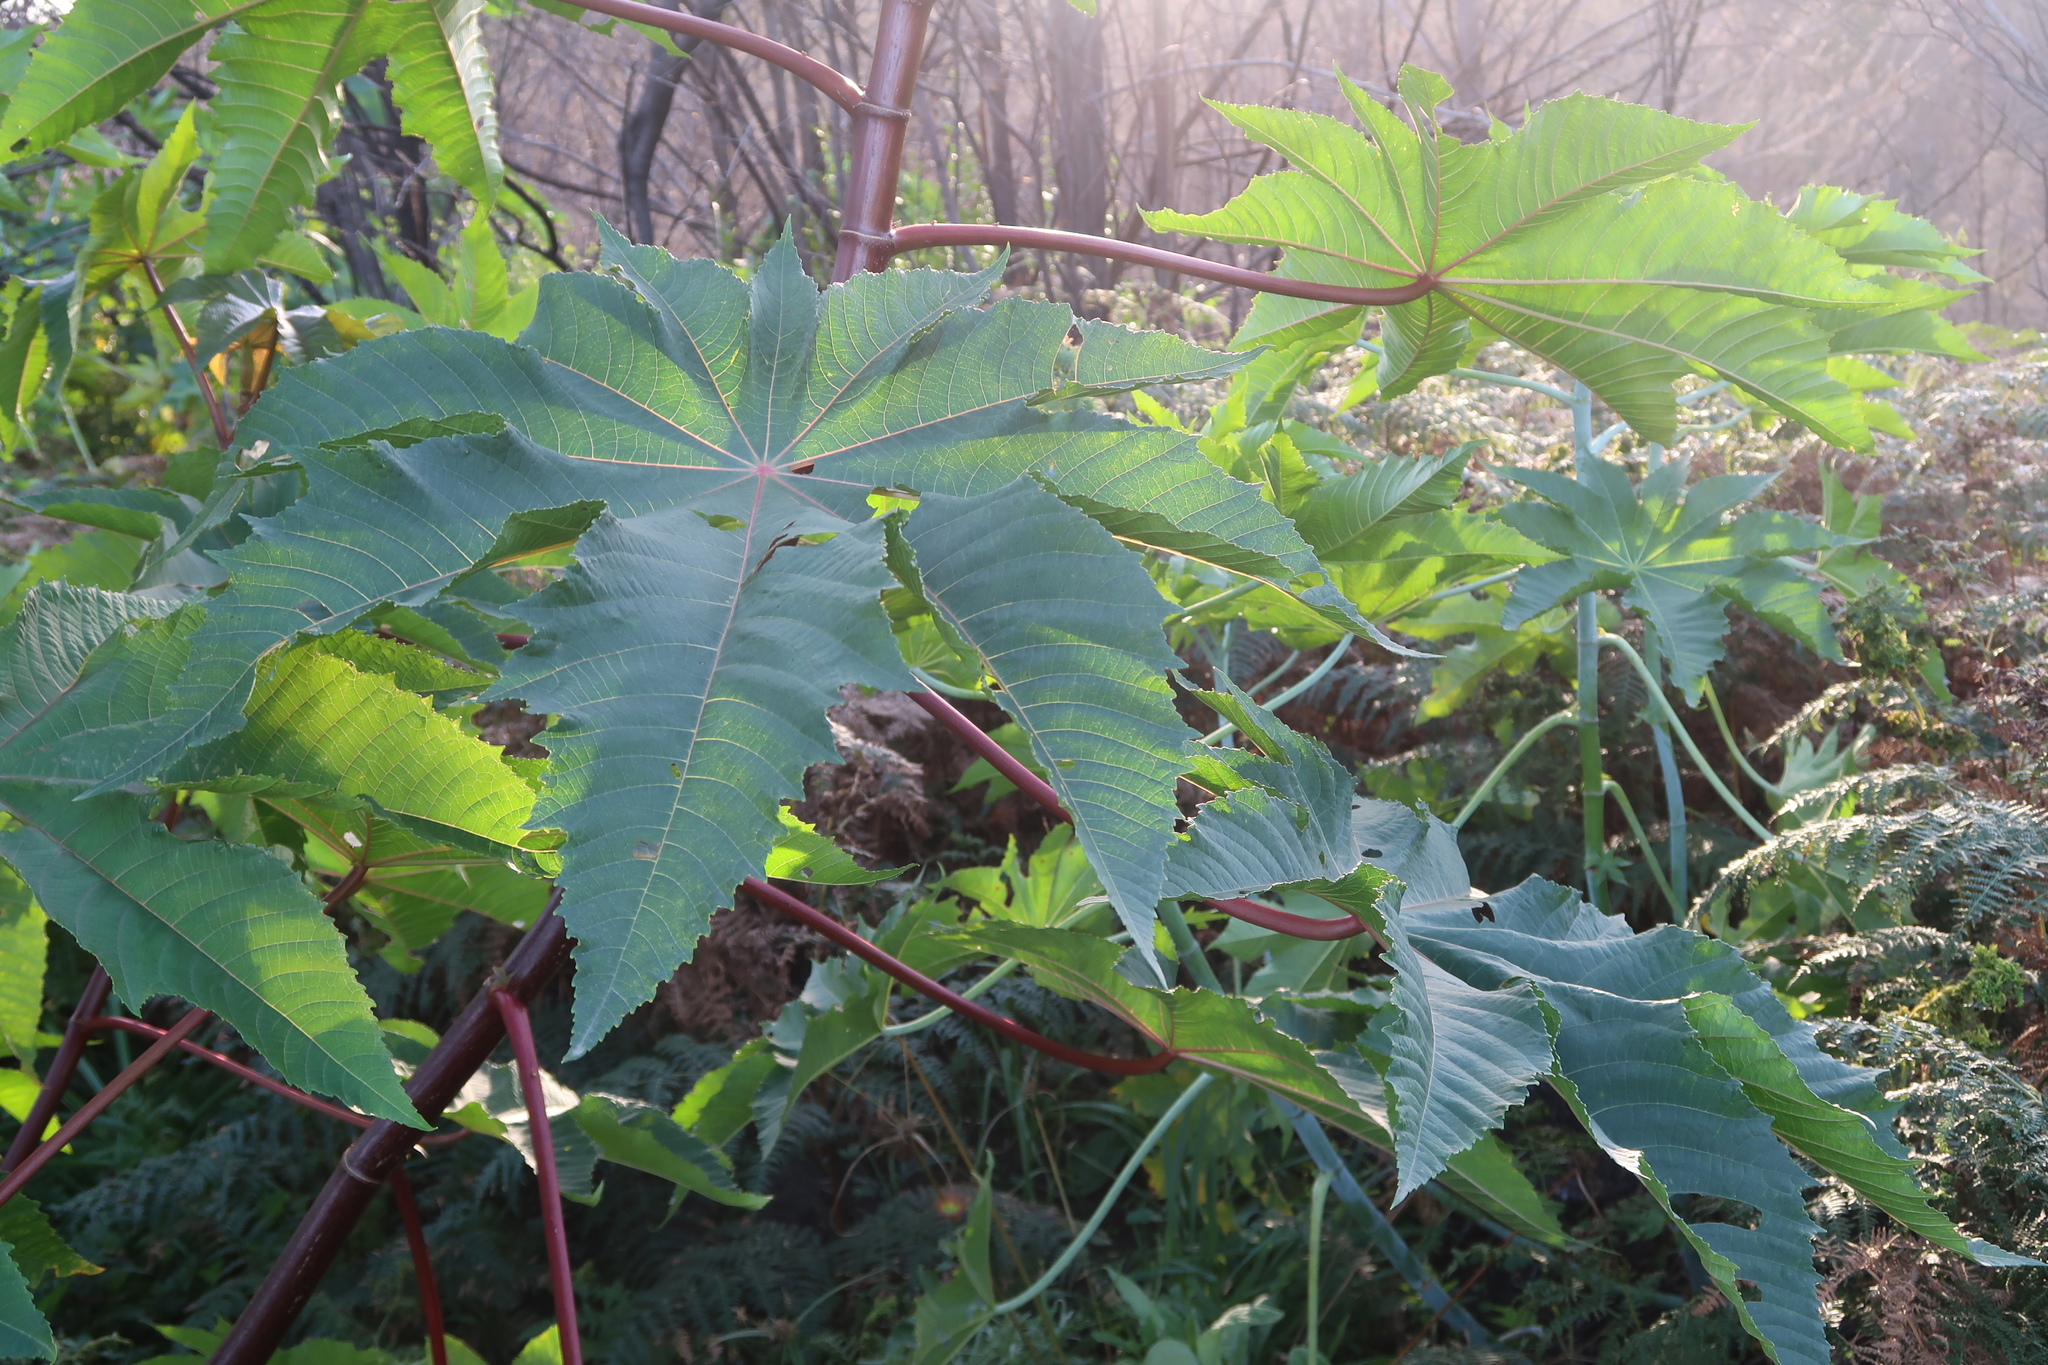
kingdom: Plantae
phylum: Tracheophyta
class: Magnoliopsida
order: Malpighiales
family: Euphorbiaceae
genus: Ricinus
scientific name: Ricinus communis
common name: Castor-oil-plant
